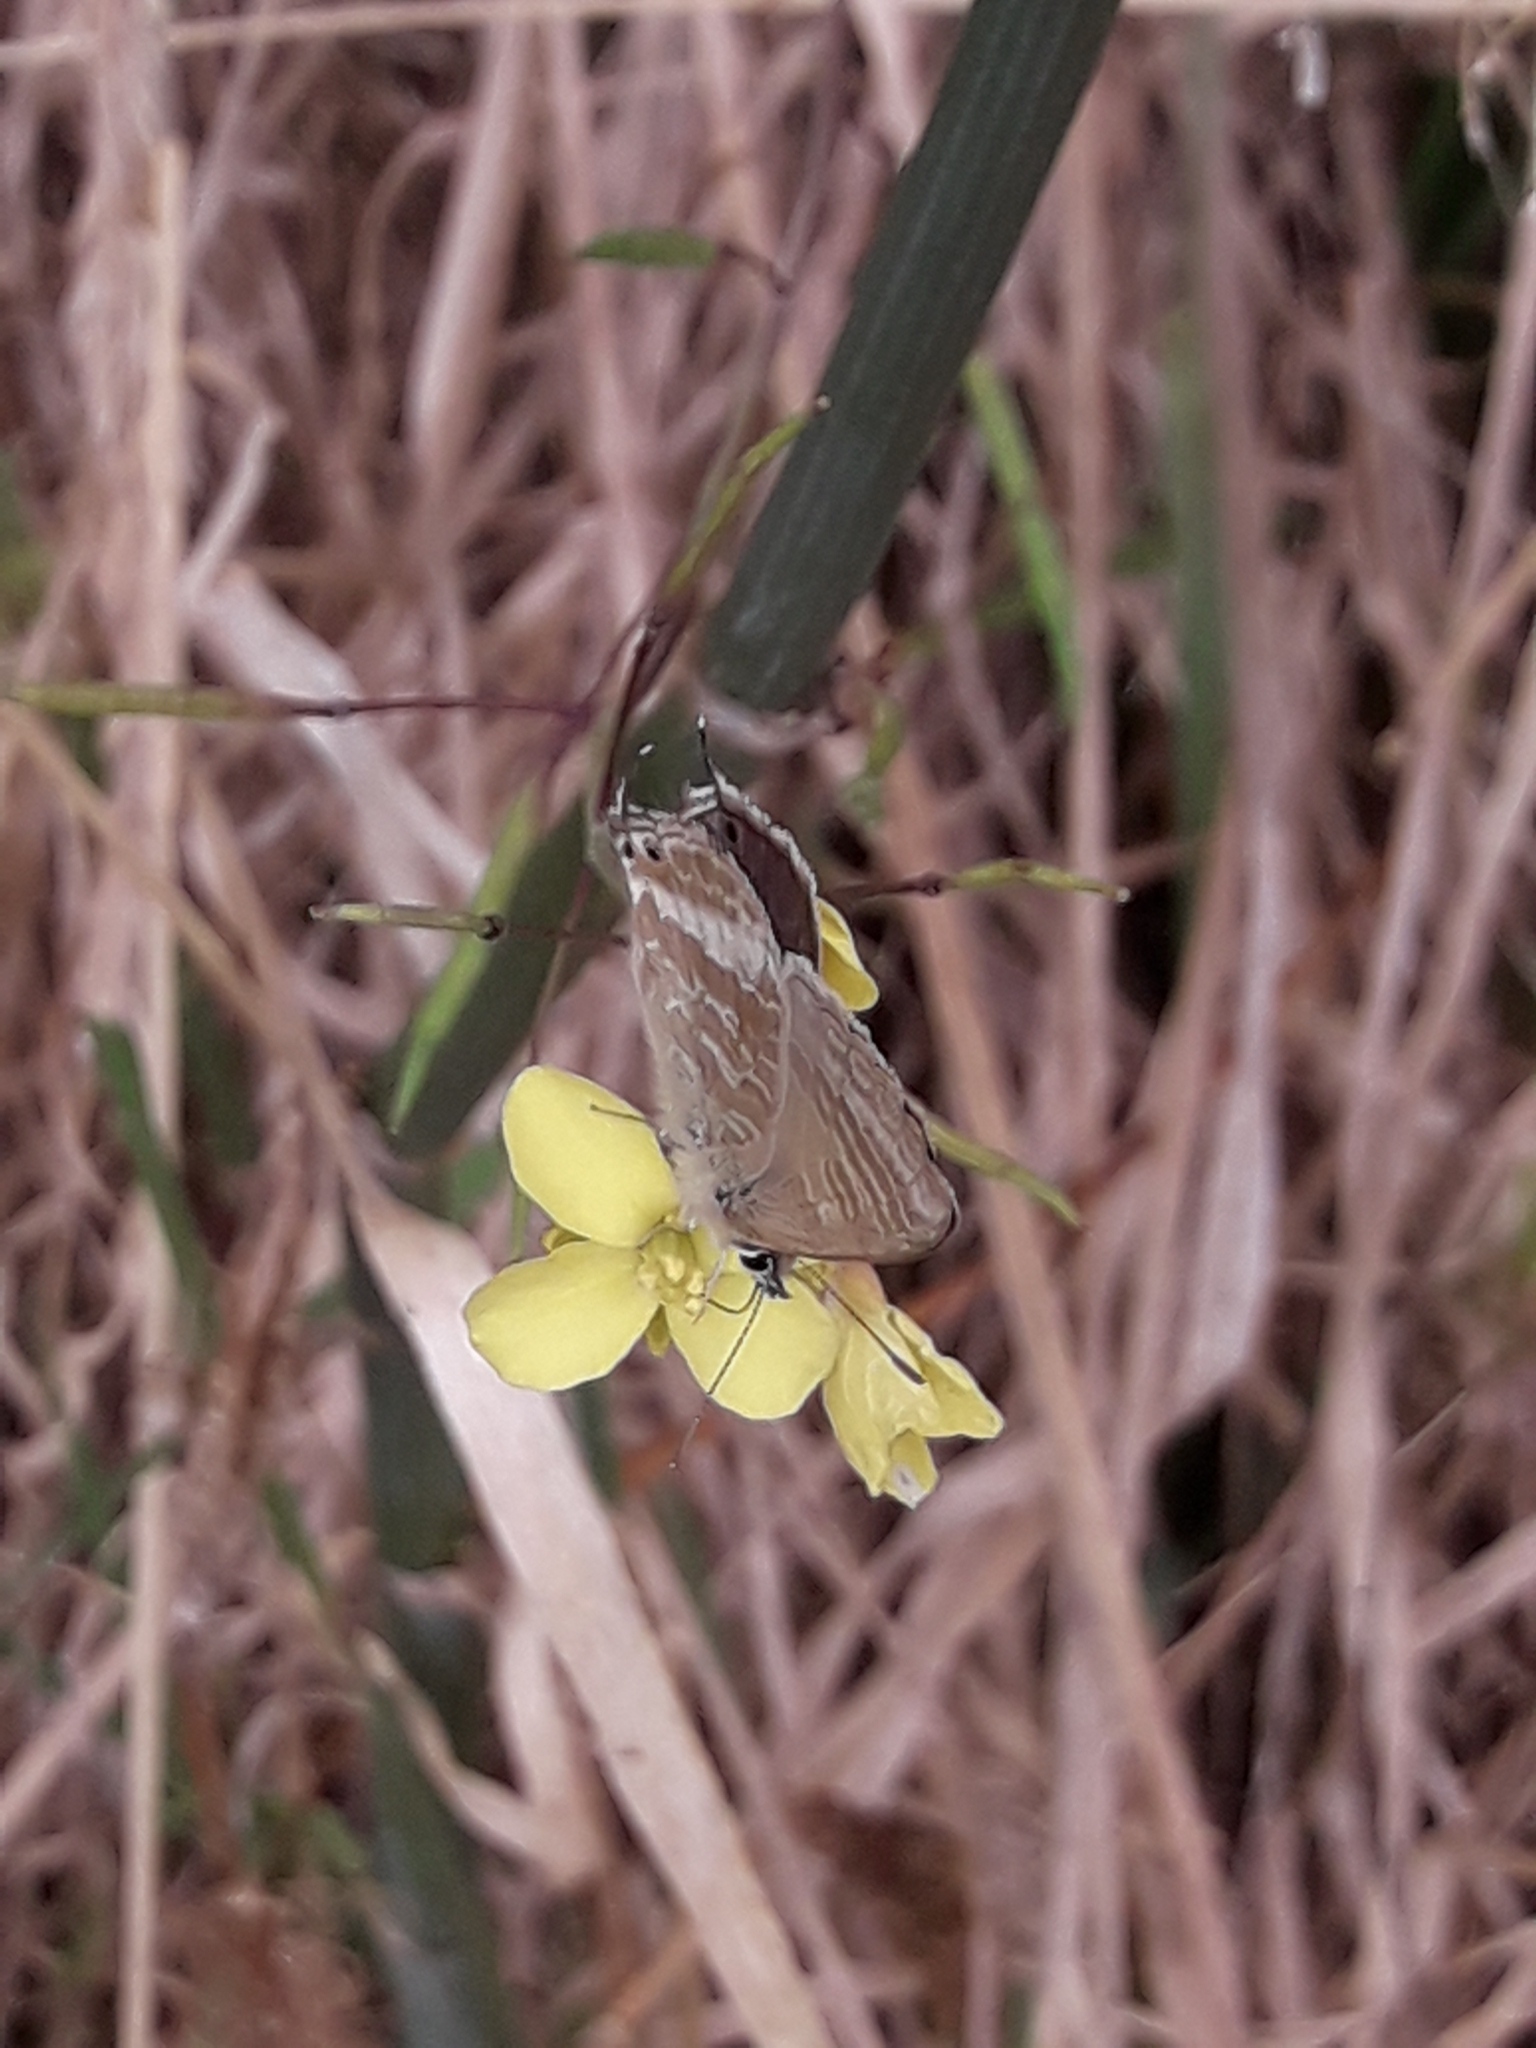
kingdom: Animalia
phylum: Arthropoda
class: Insecta
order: Lepidoptera
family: Lycaenidae
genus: Lampides
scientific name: Lampides boeticus
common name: Long-tailed blue
